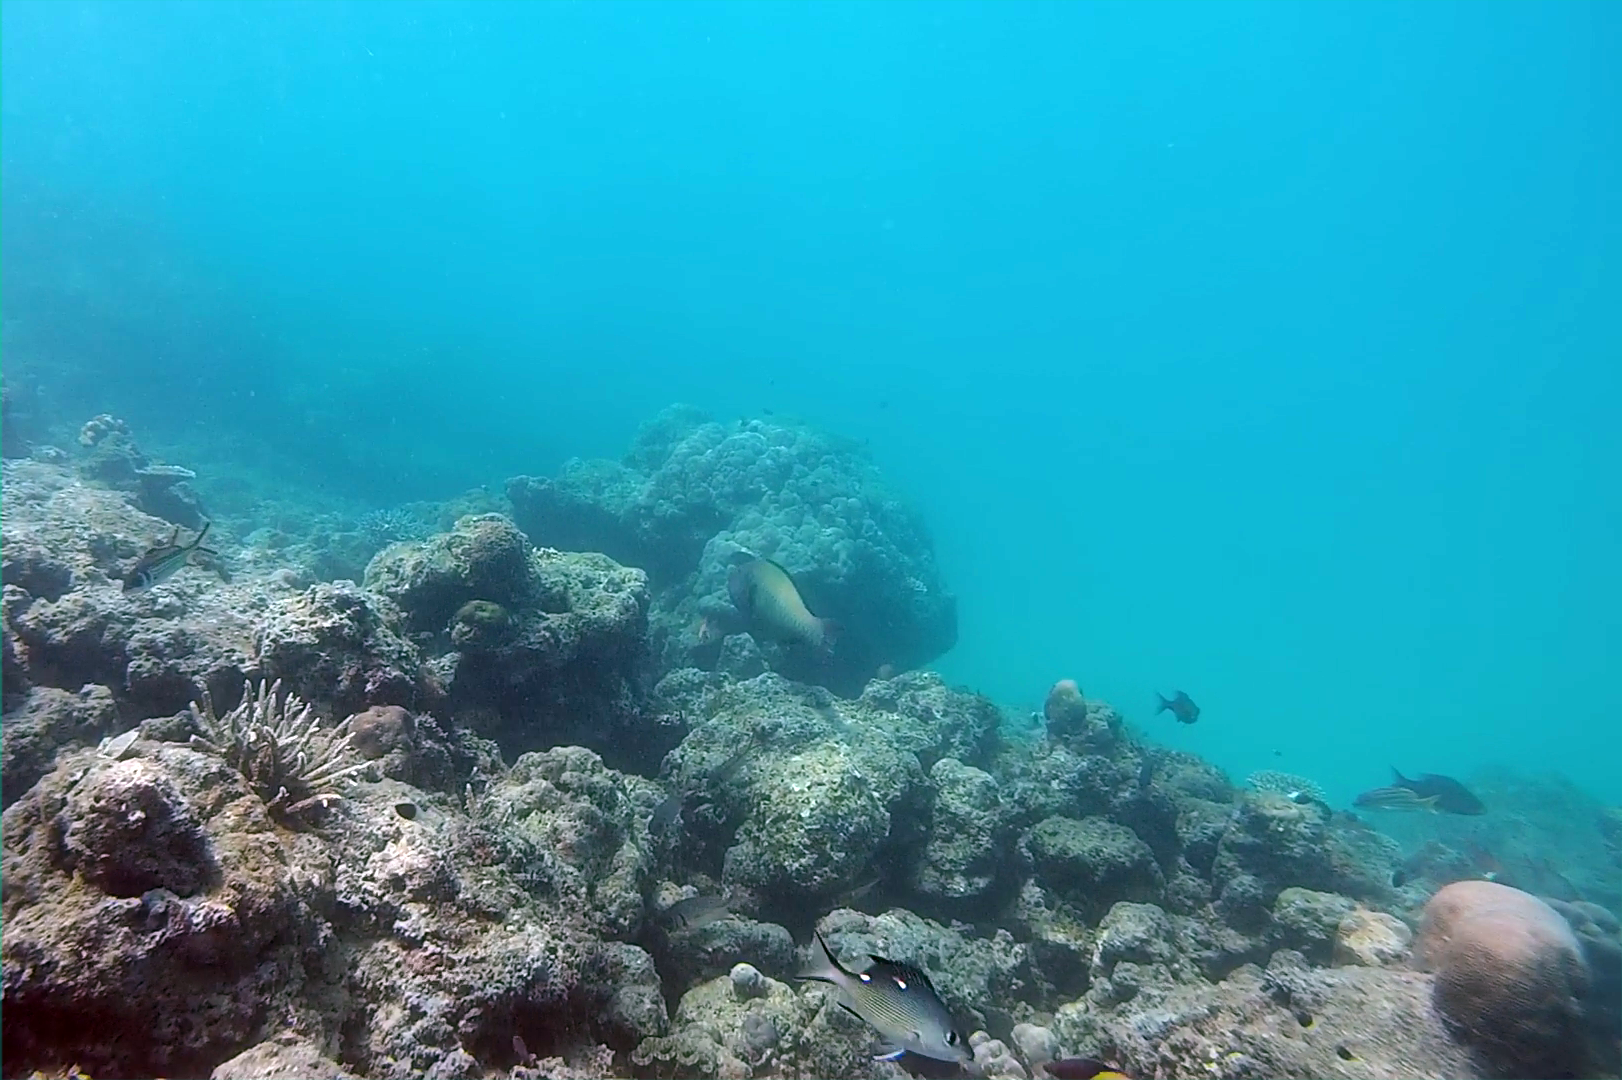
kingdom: Animalia
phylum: Chordata
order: Perciformes
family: Lutjanidae
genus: Lutjanus
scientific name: Lutjanus bohar
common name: Red bass
